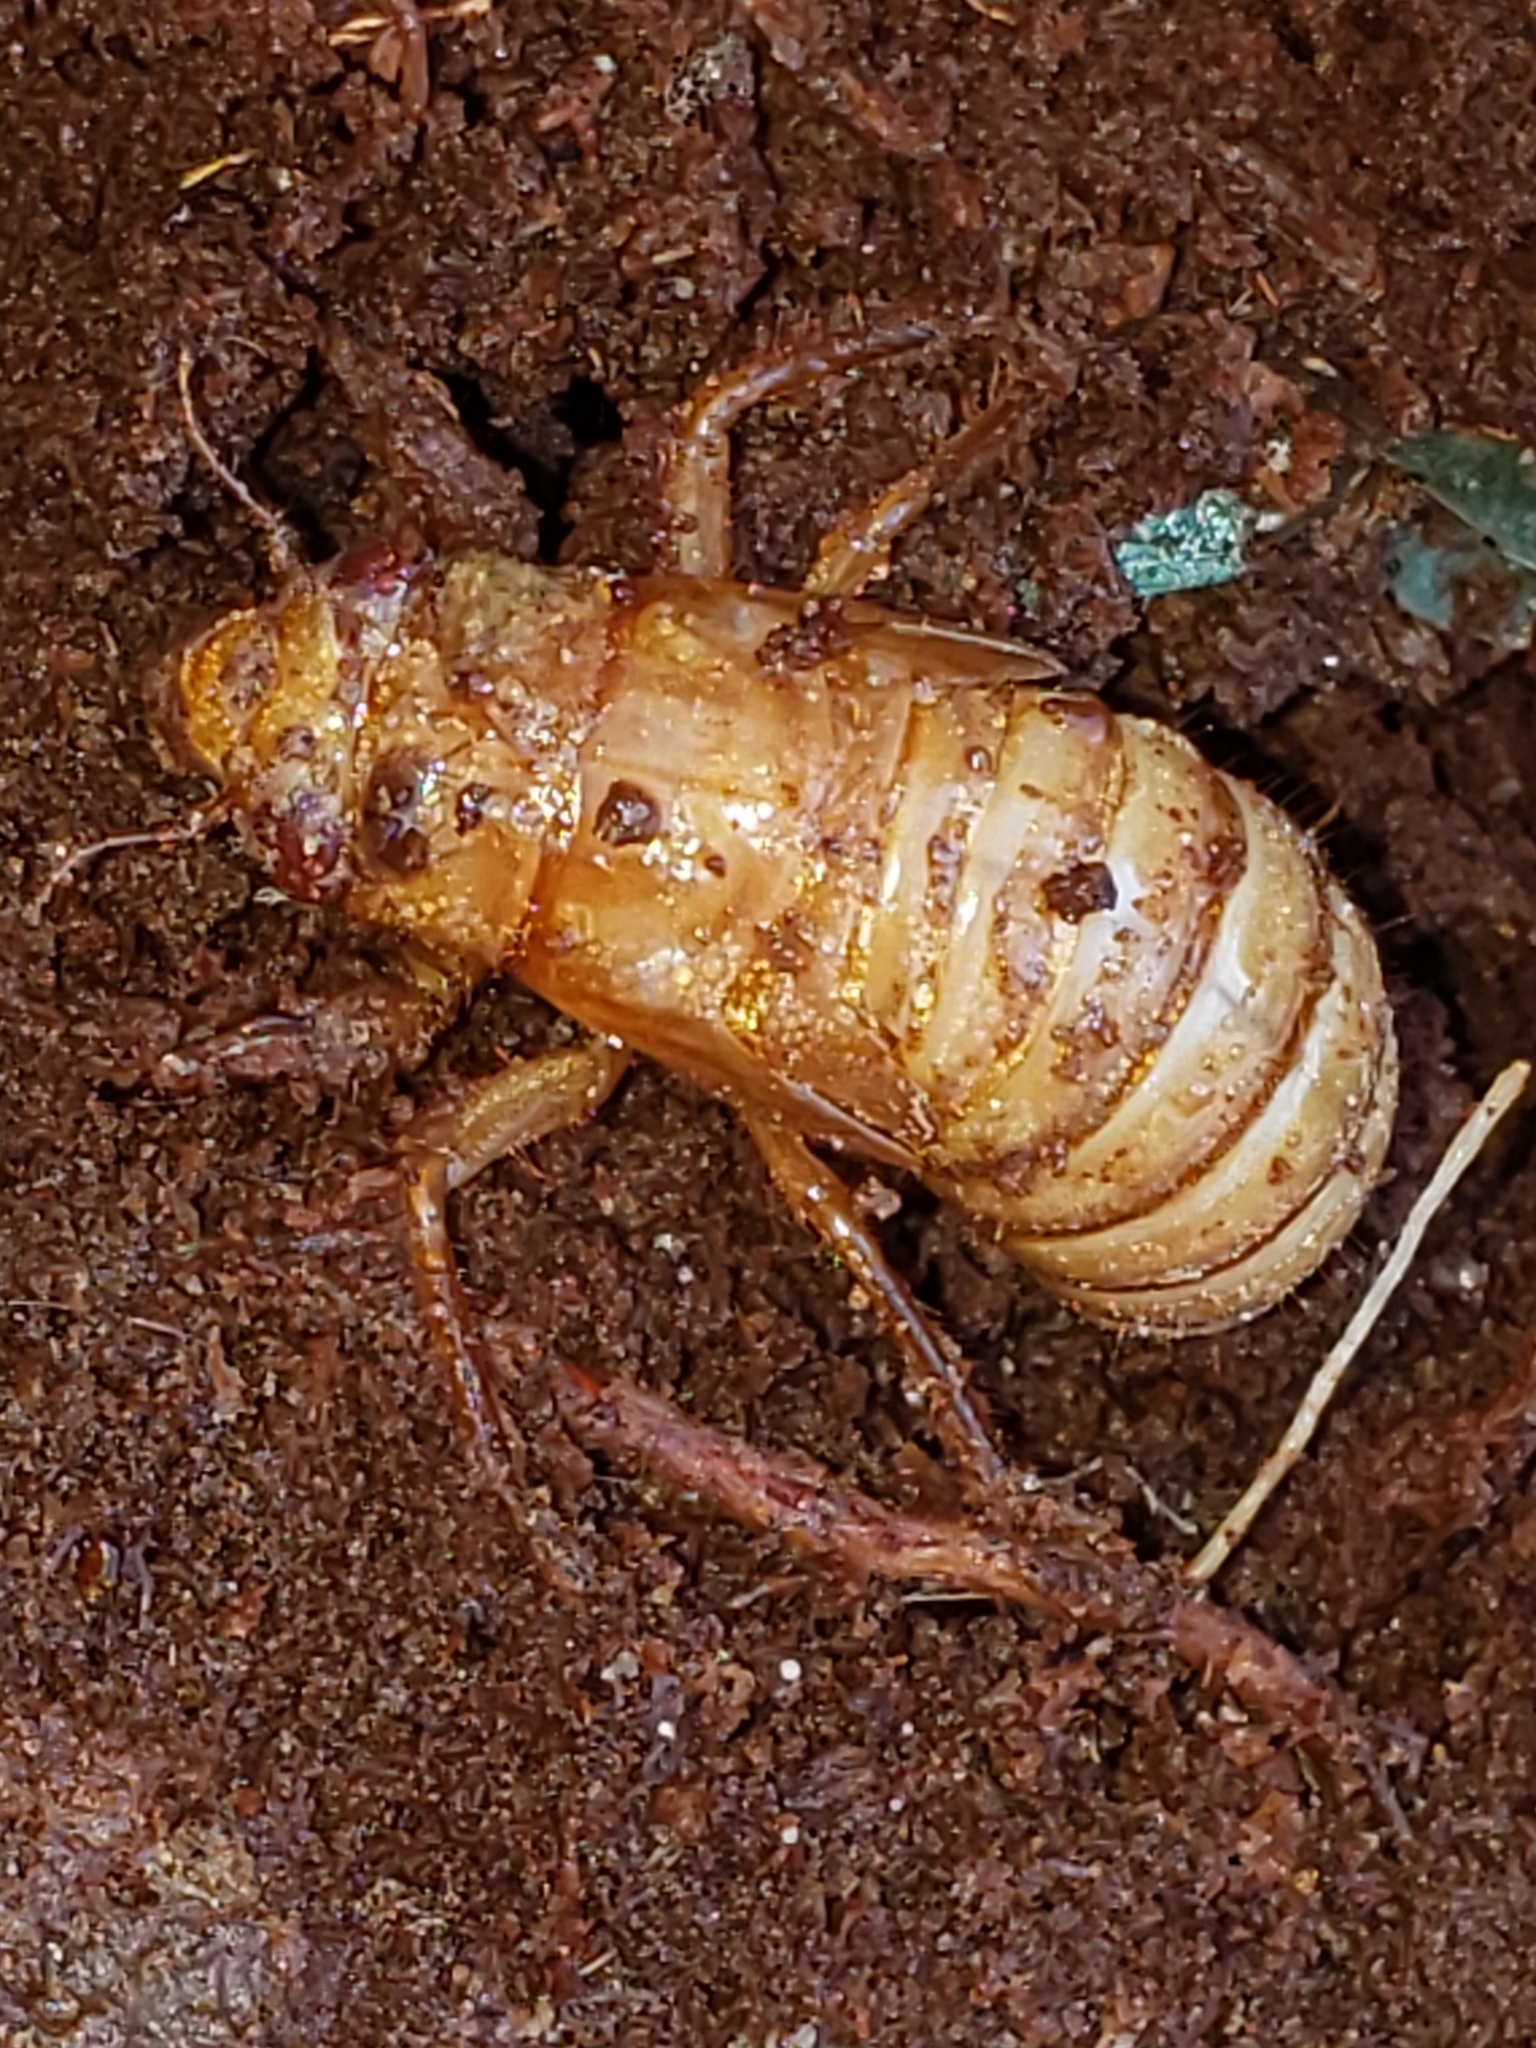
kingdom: Animalia
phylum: Arthropoda
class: Insecta
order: Hemiptera
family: Cicadidae
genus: Magicicada
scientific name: Magicicada
